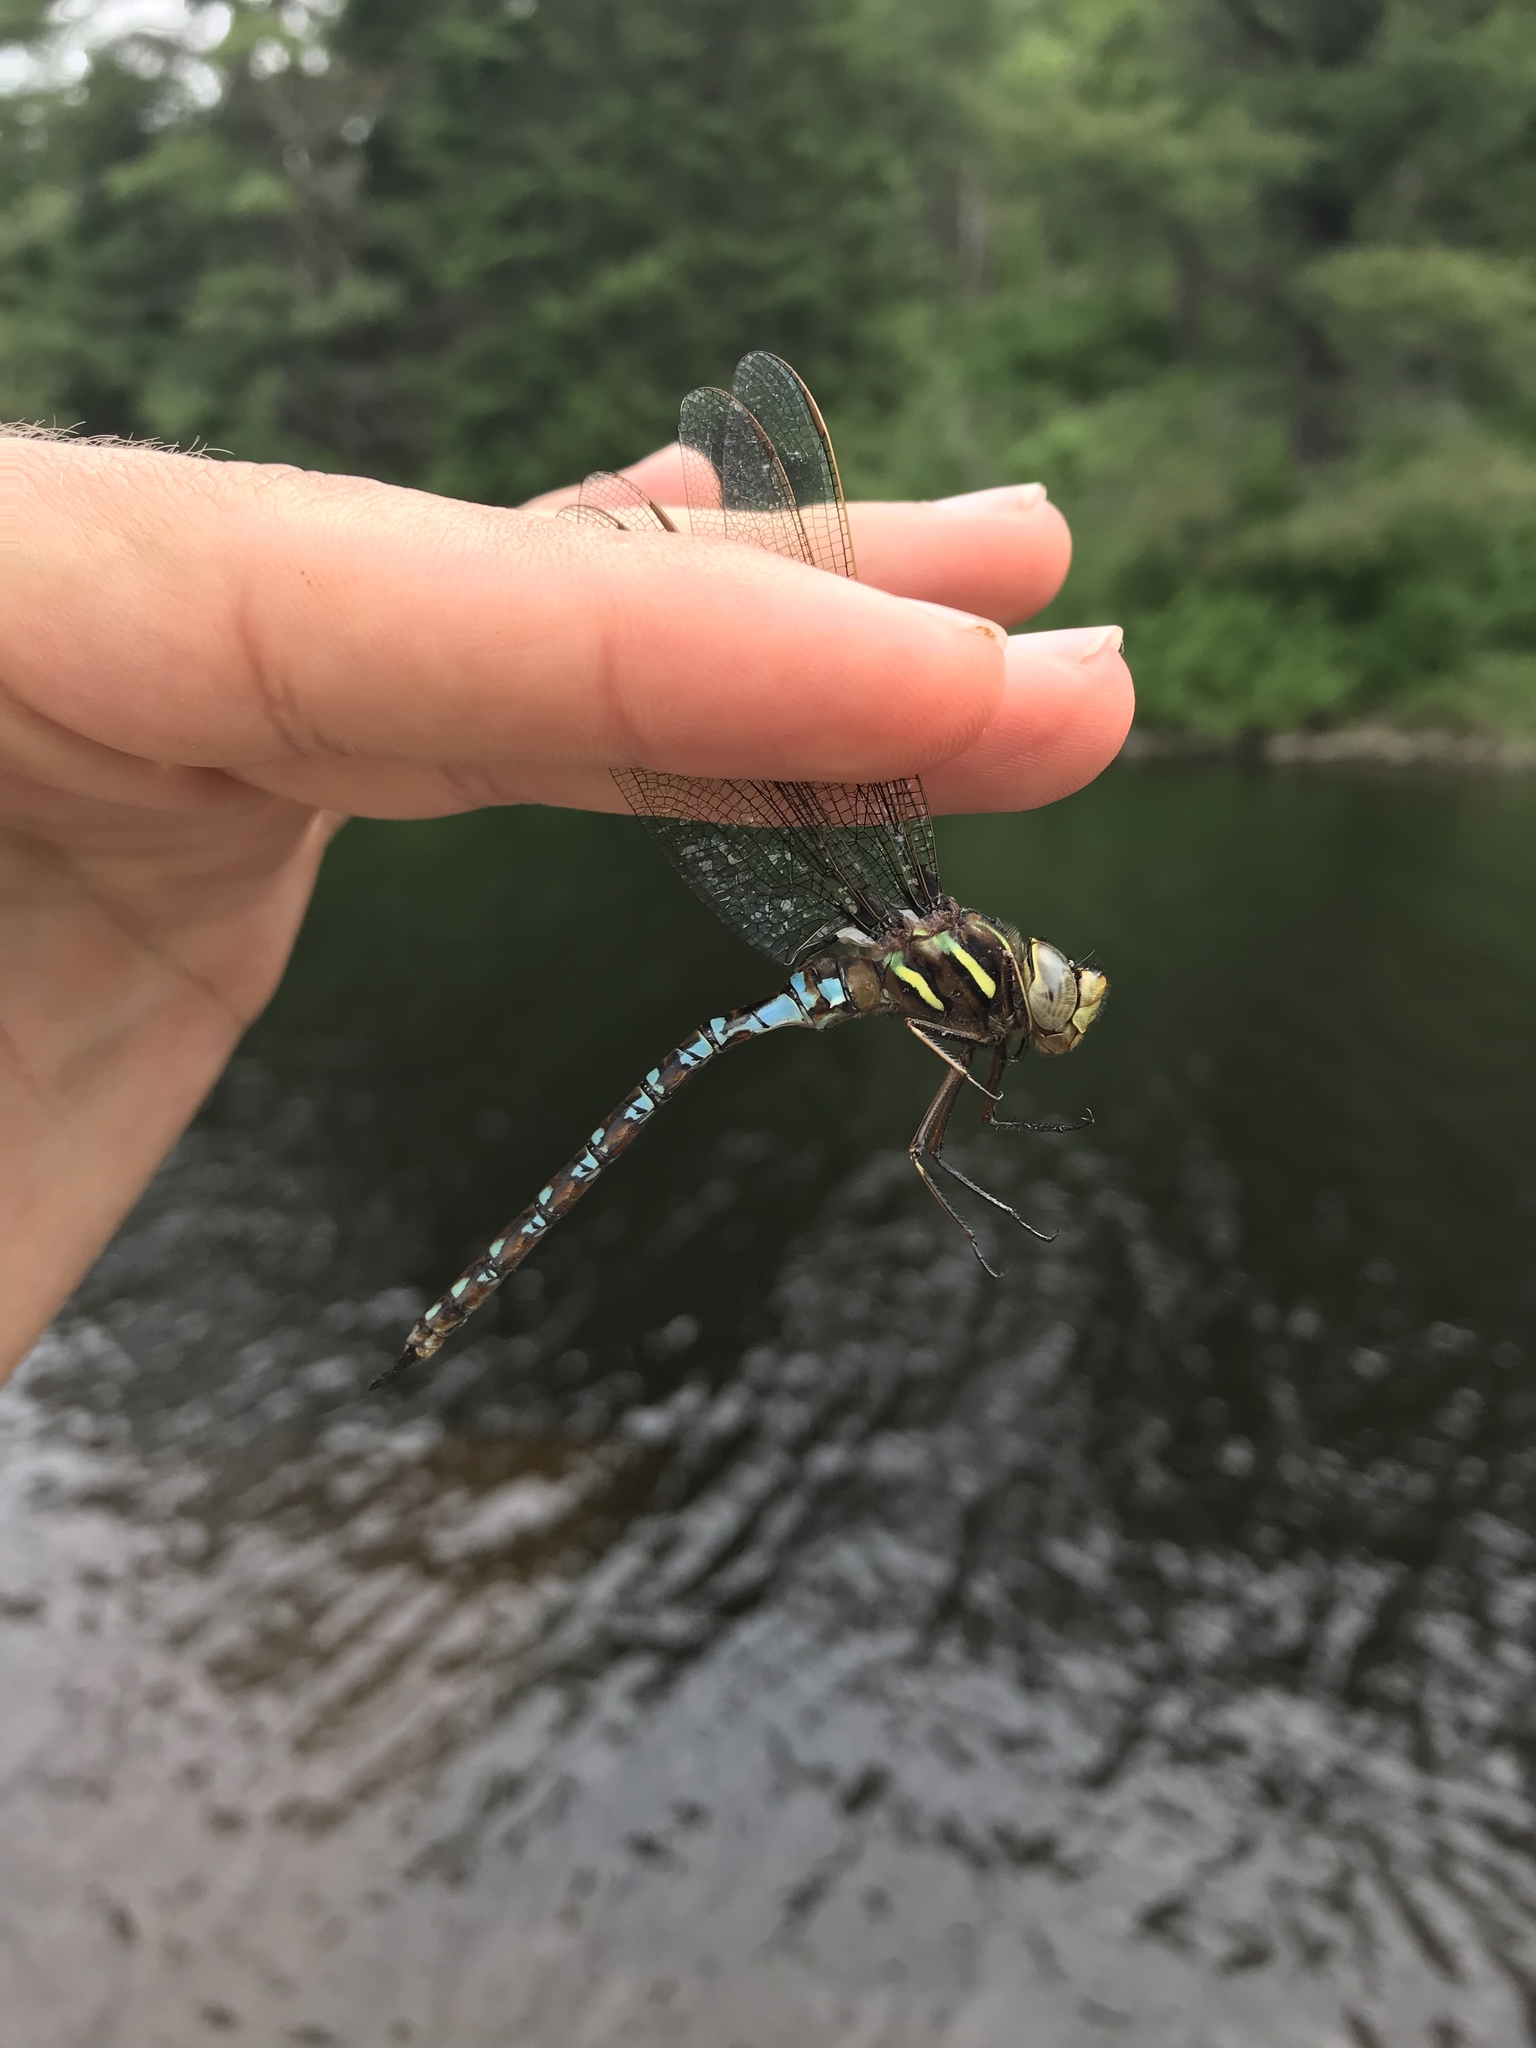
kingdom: Animalia
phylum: Arthropoda
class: Insecta
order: Odonata
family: Aeshnidae
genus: Basiaeschna
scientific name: Basiaeschna janata
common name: Springtime darner
